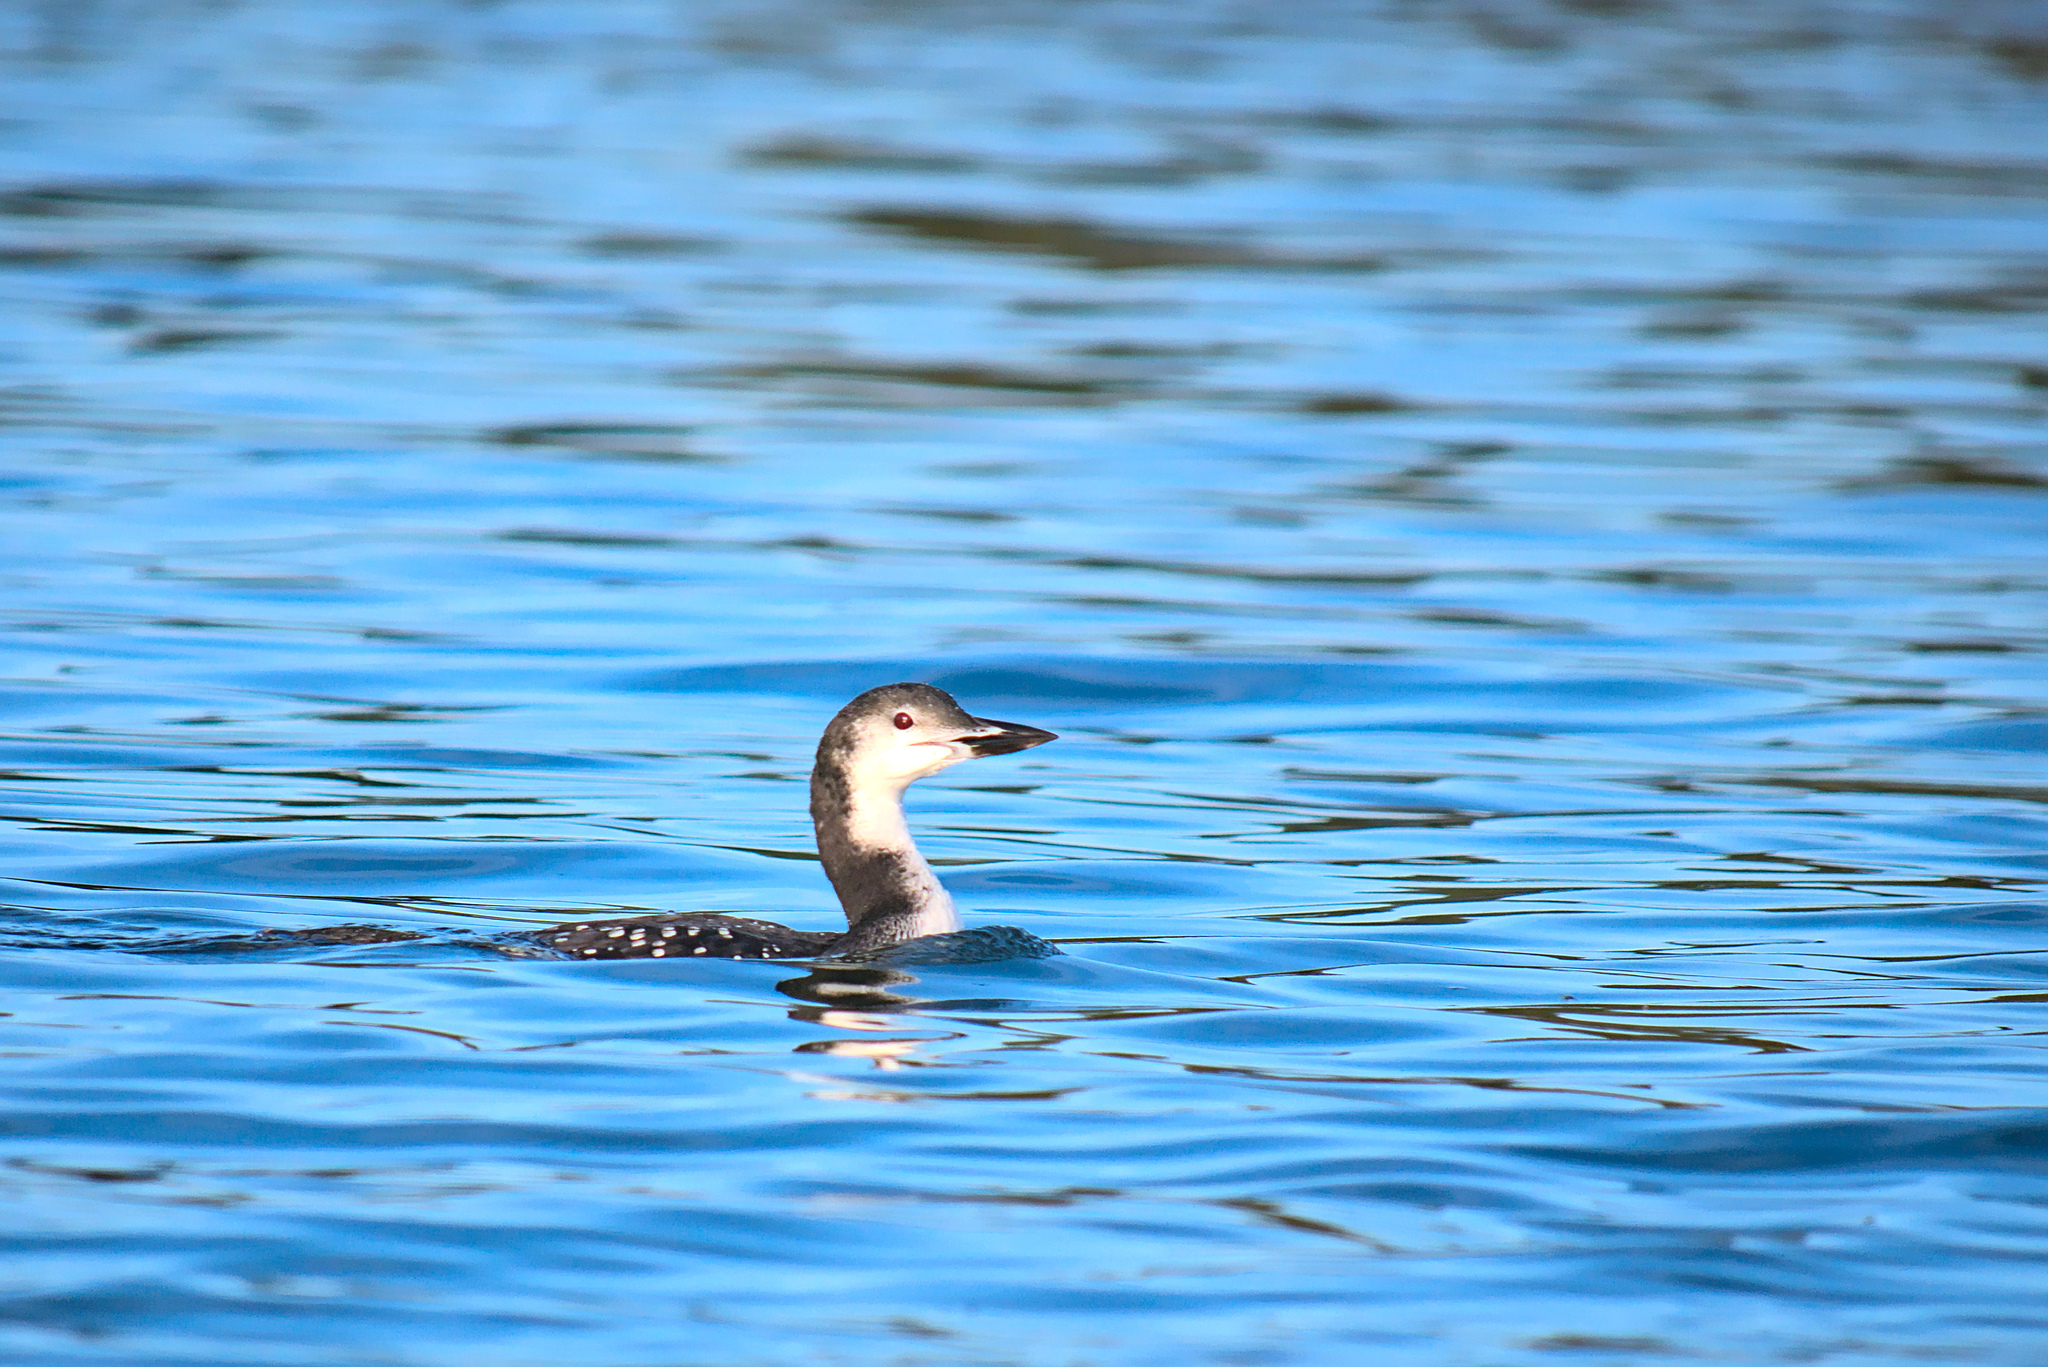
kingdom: Animalia
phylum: Chordata
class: Aves
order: Gaviiformes
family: Gaviidae
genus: Gavia
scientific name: Gavia immer
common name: Common loon
